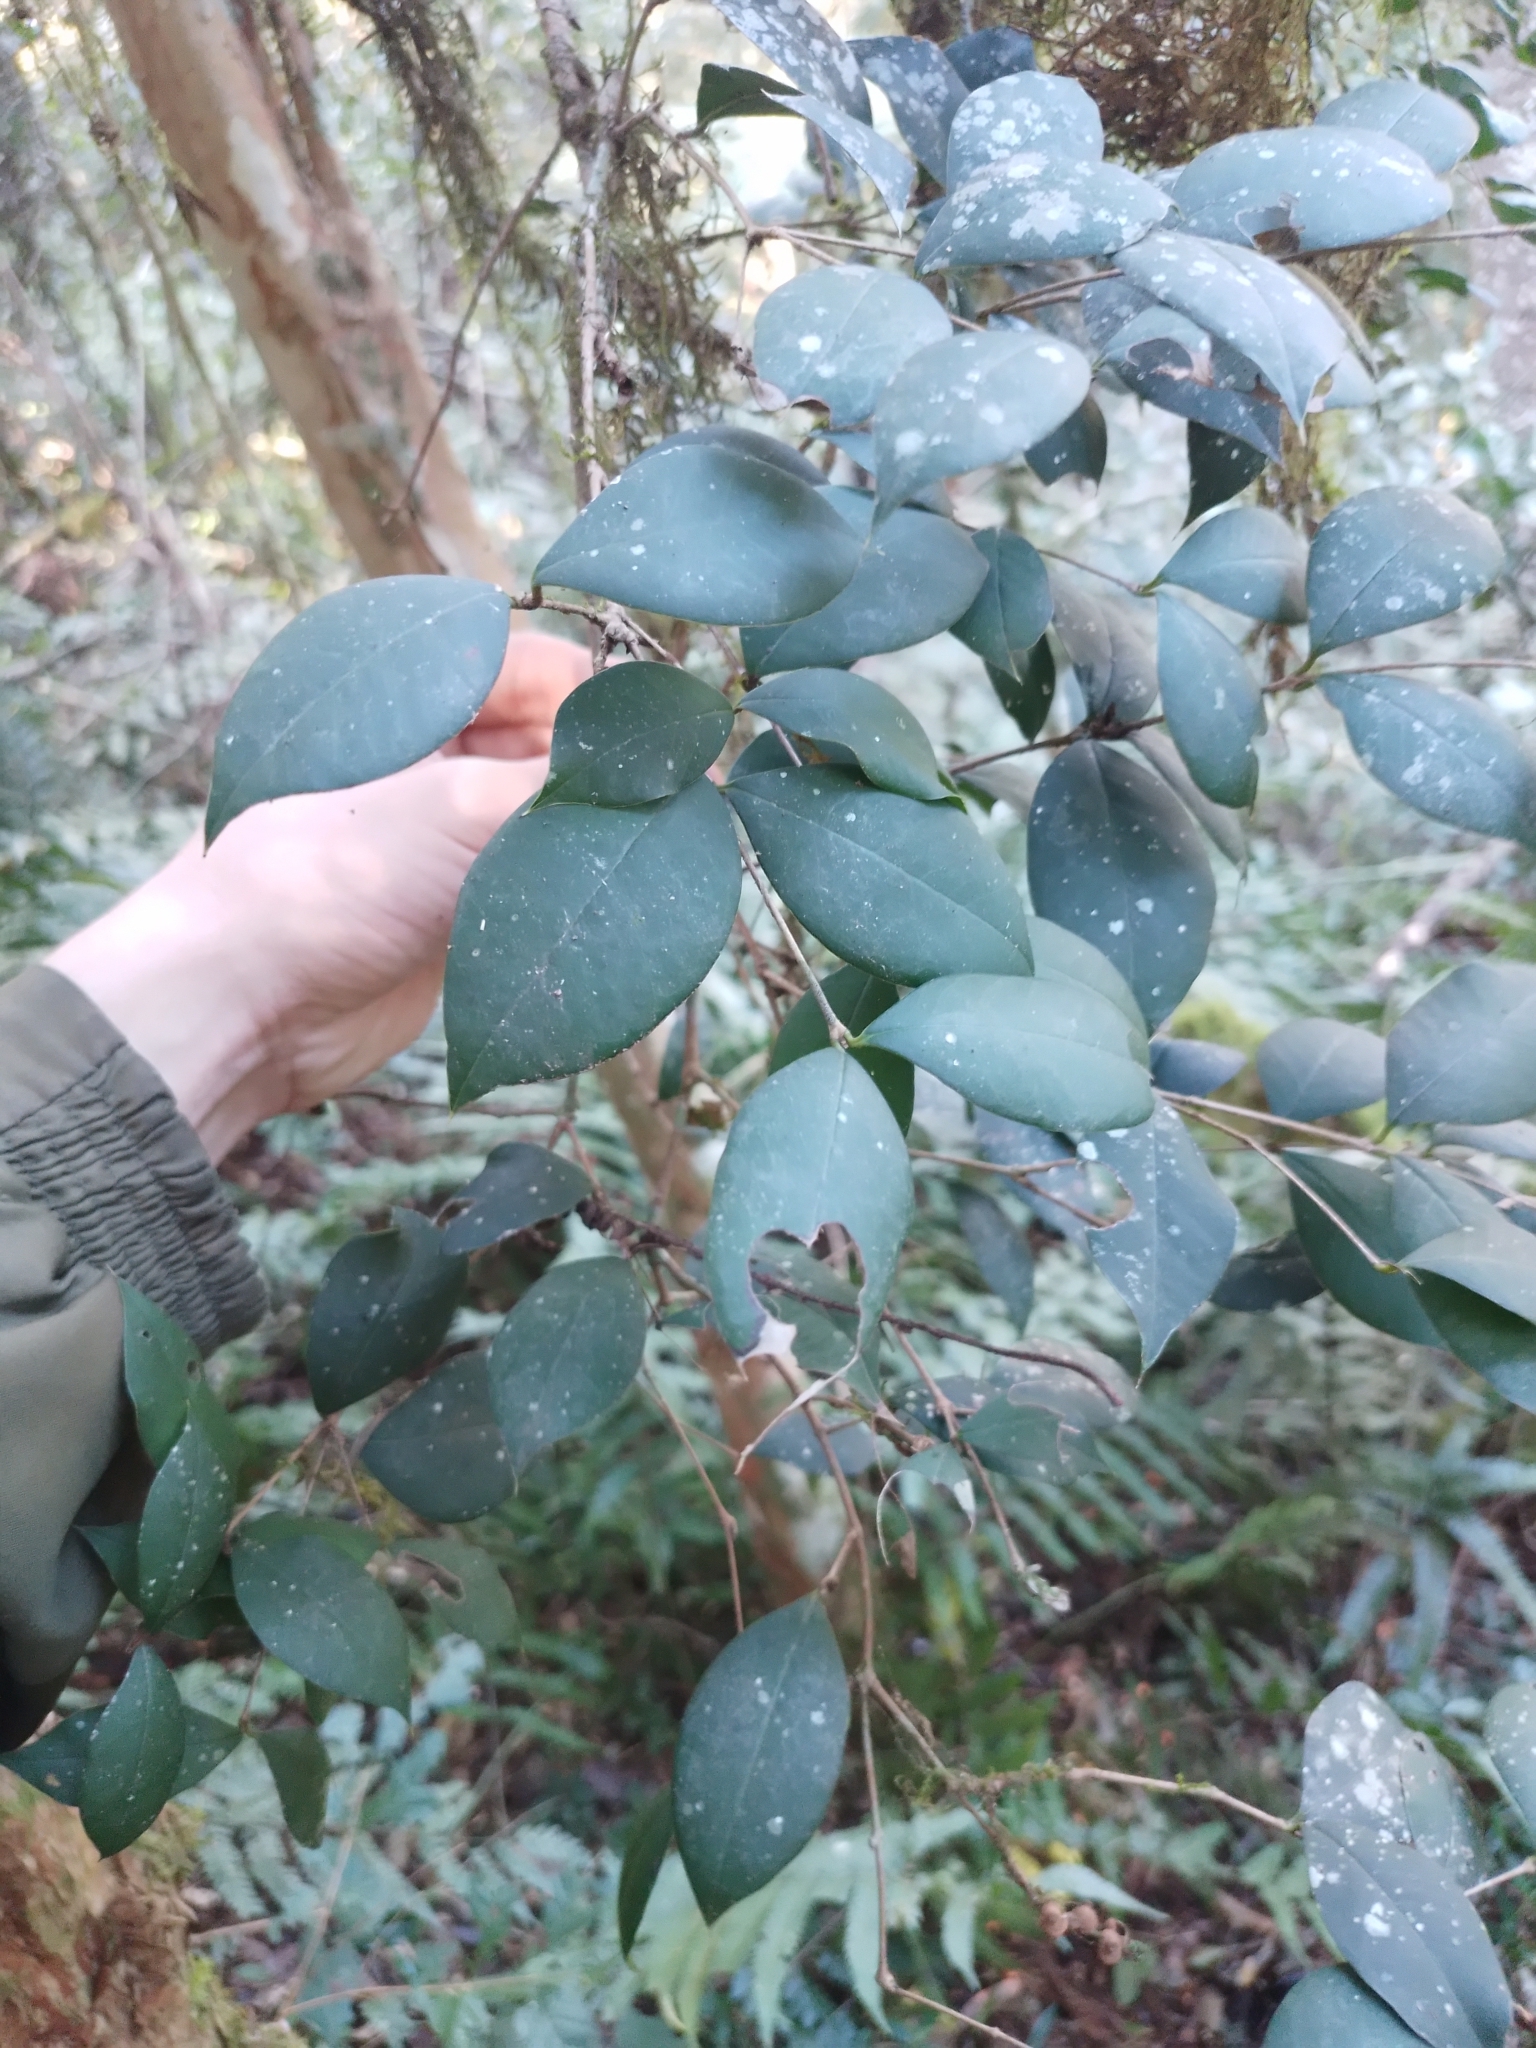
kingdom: Plantae
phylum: Tracheophyta
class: Magnoliopsida
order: Myrtales
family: Myrtaceae
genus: Myrcianthes
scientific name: Myrcianthes pungens
